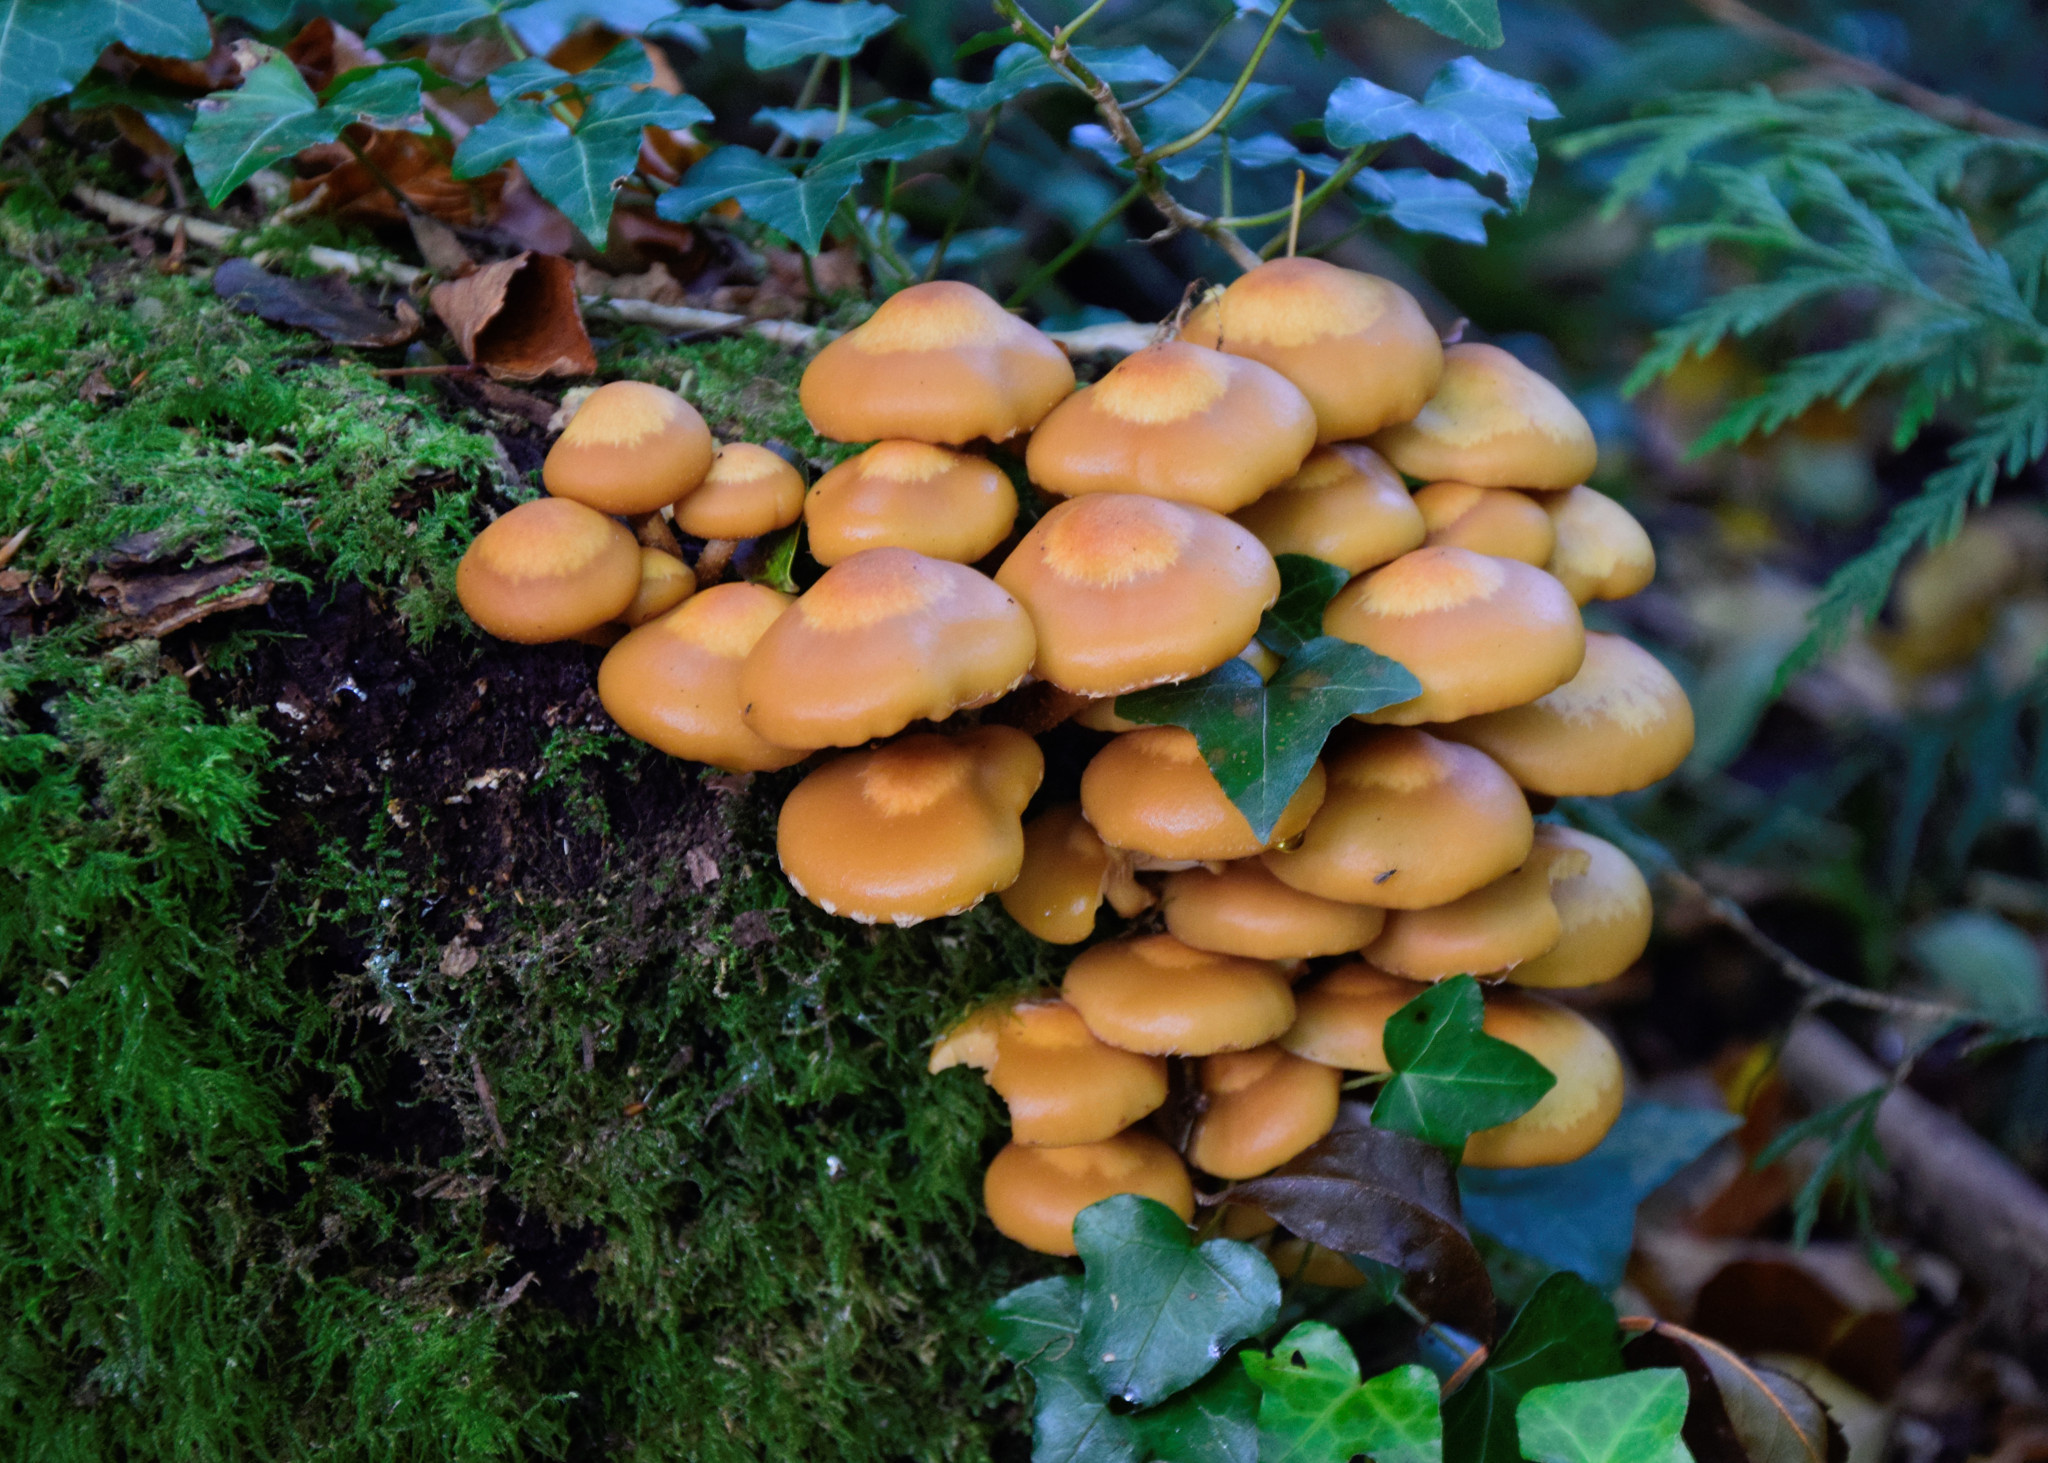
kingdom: Fungi
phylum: Basidiomycota
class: Agaricomycetes
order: Agaricales
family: Strophariaceae
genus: Kuehneromyces
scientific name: Kuehneromyces mutabilis
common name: Sheathed woodtuft
